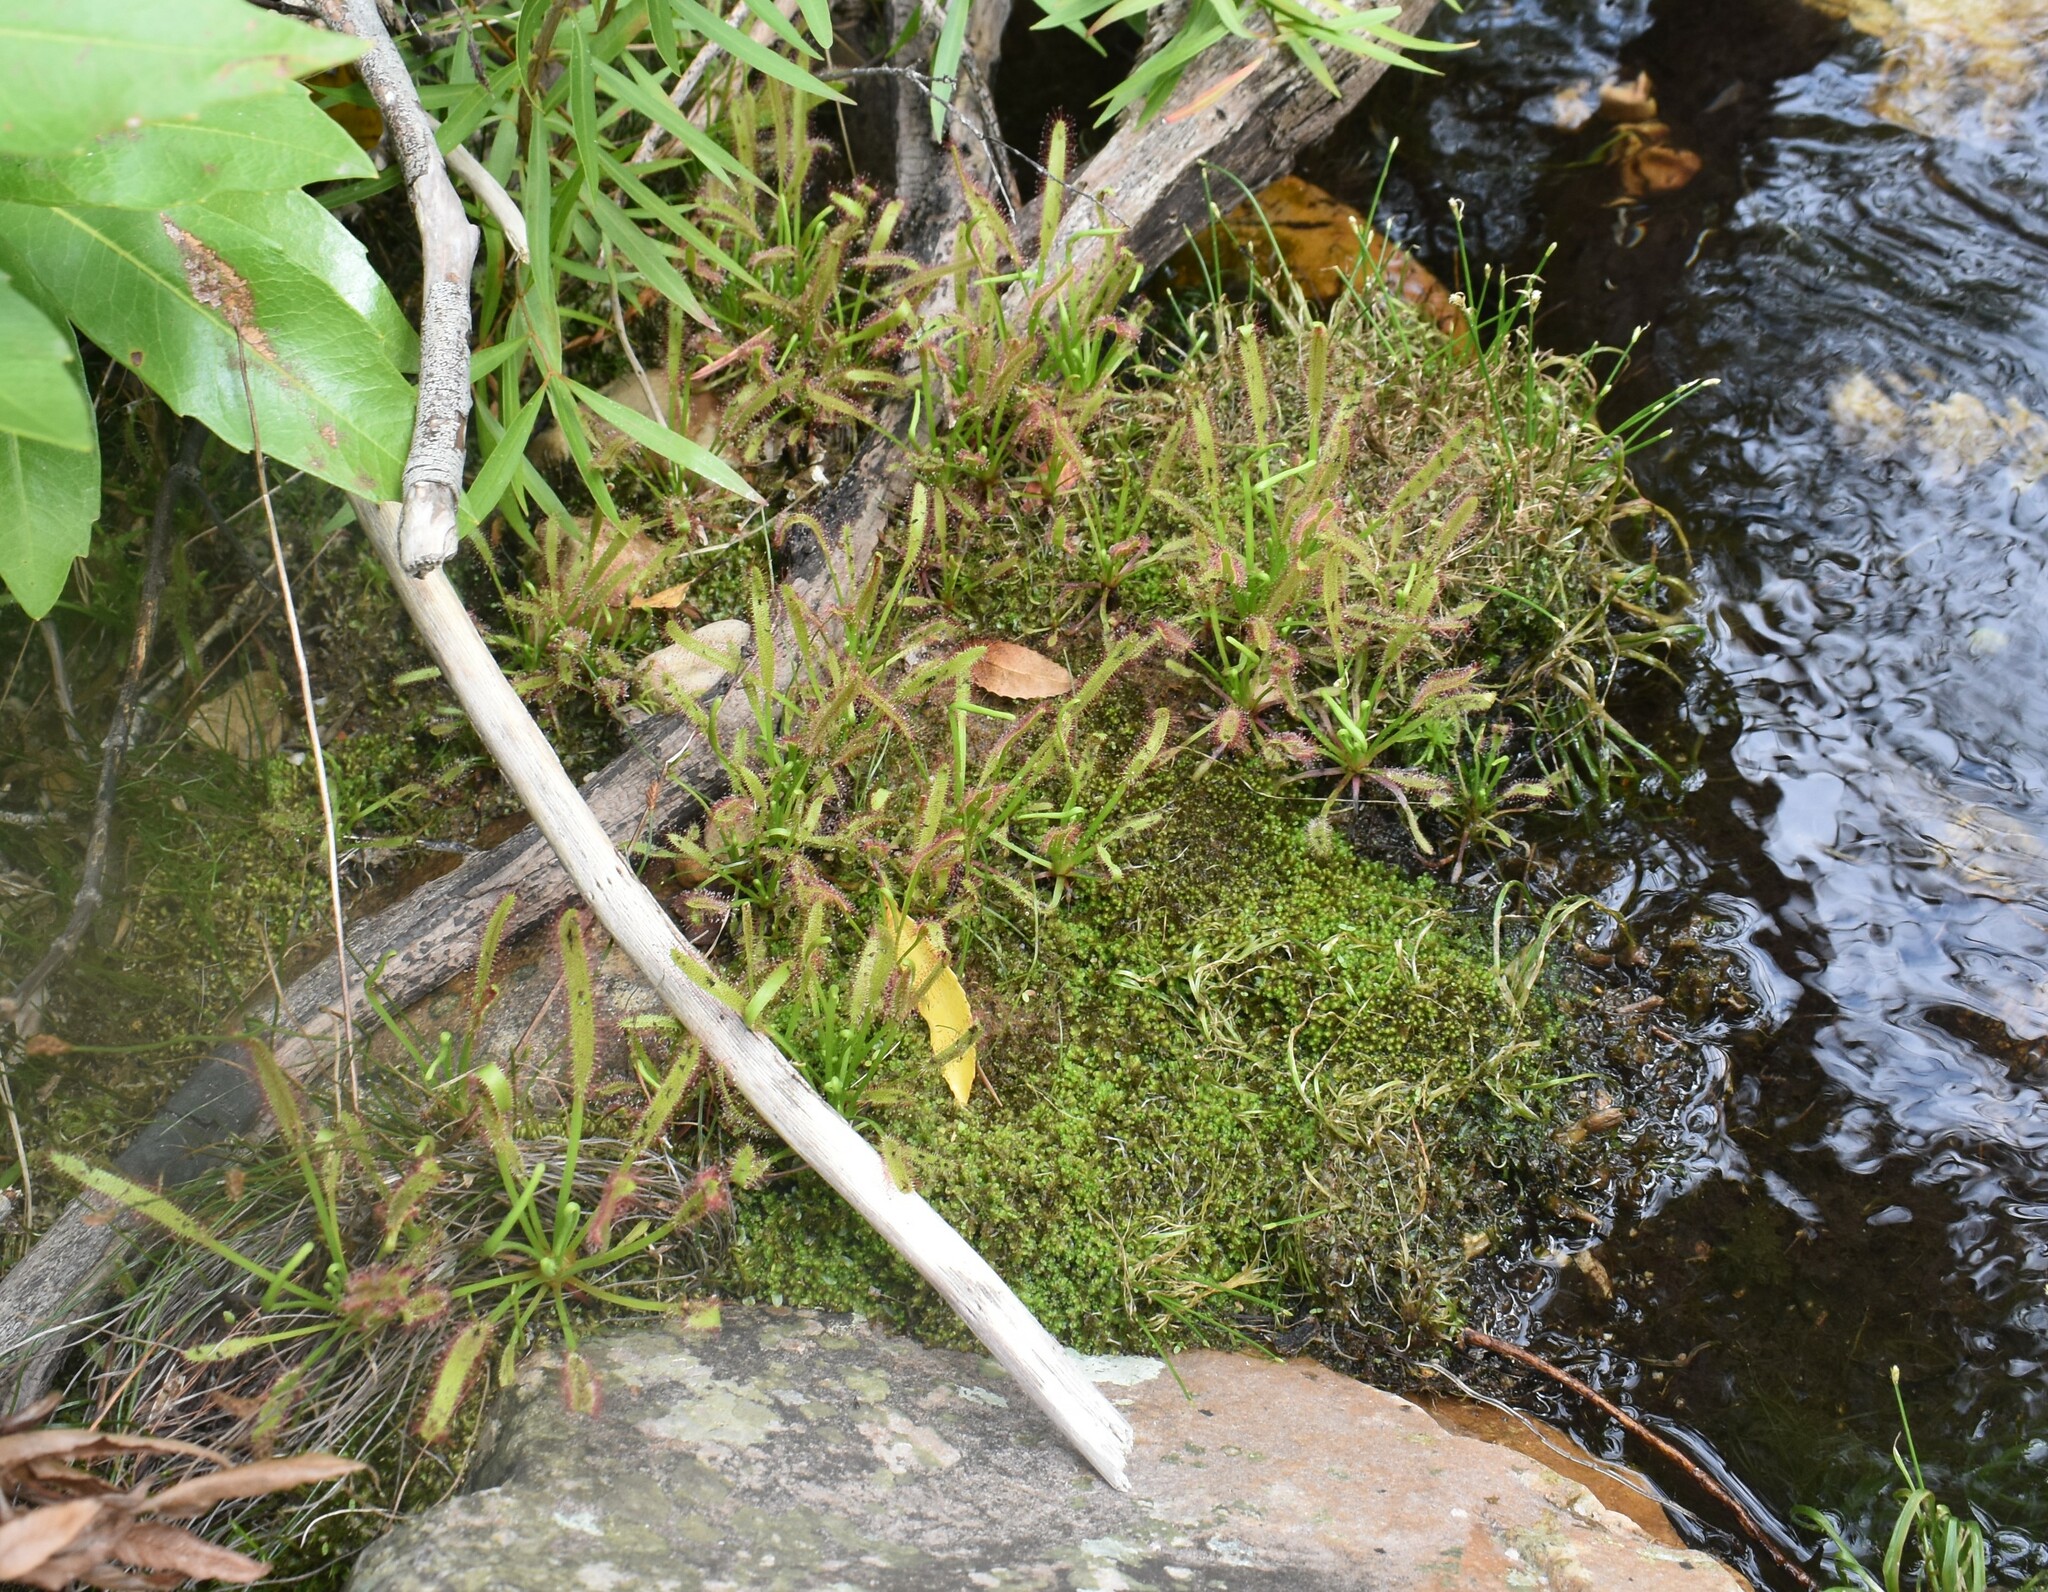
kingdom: Plantae
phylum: Tracheophyta
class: Magnoliopsida
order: Caryophyllales
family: Droseraceae
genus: Drosera
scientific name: Drosera capensis
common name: Cape sundew
